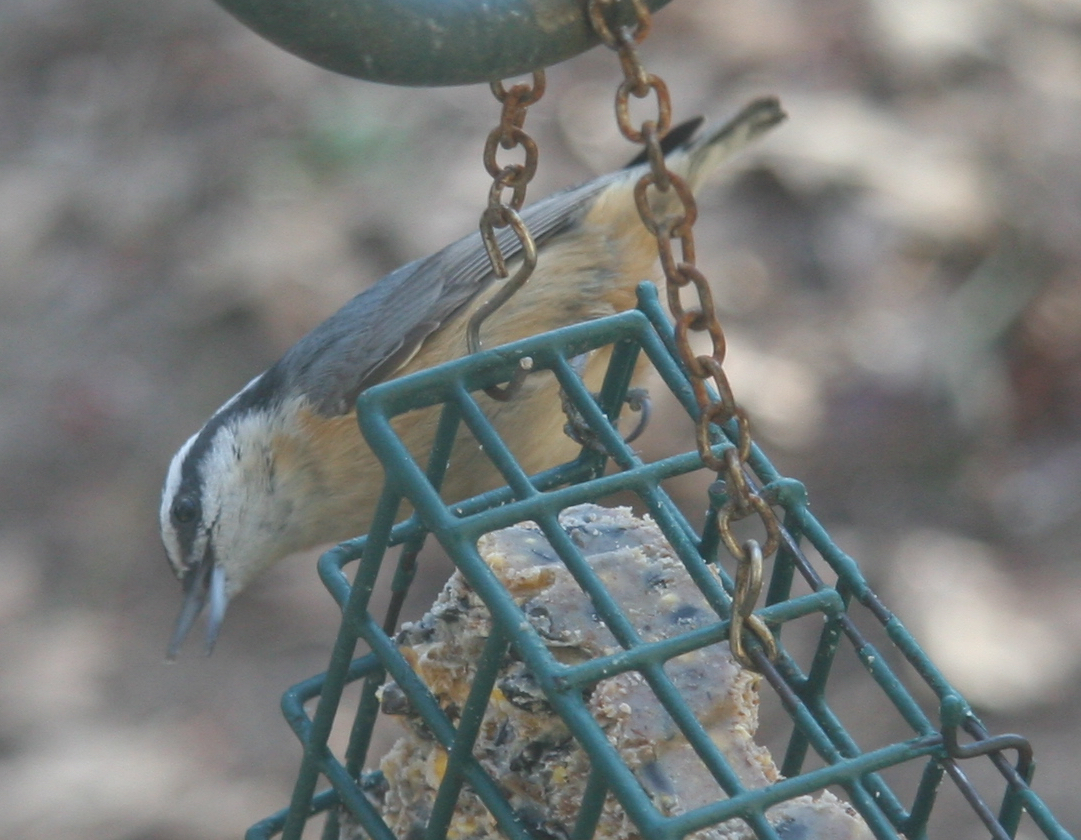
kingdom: Animalia
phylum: Chordata
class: Aves
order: Passeriformes
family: Sittidae
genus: Sitta
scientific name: Sitta canadensis
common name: Red-breasted nuthatch
